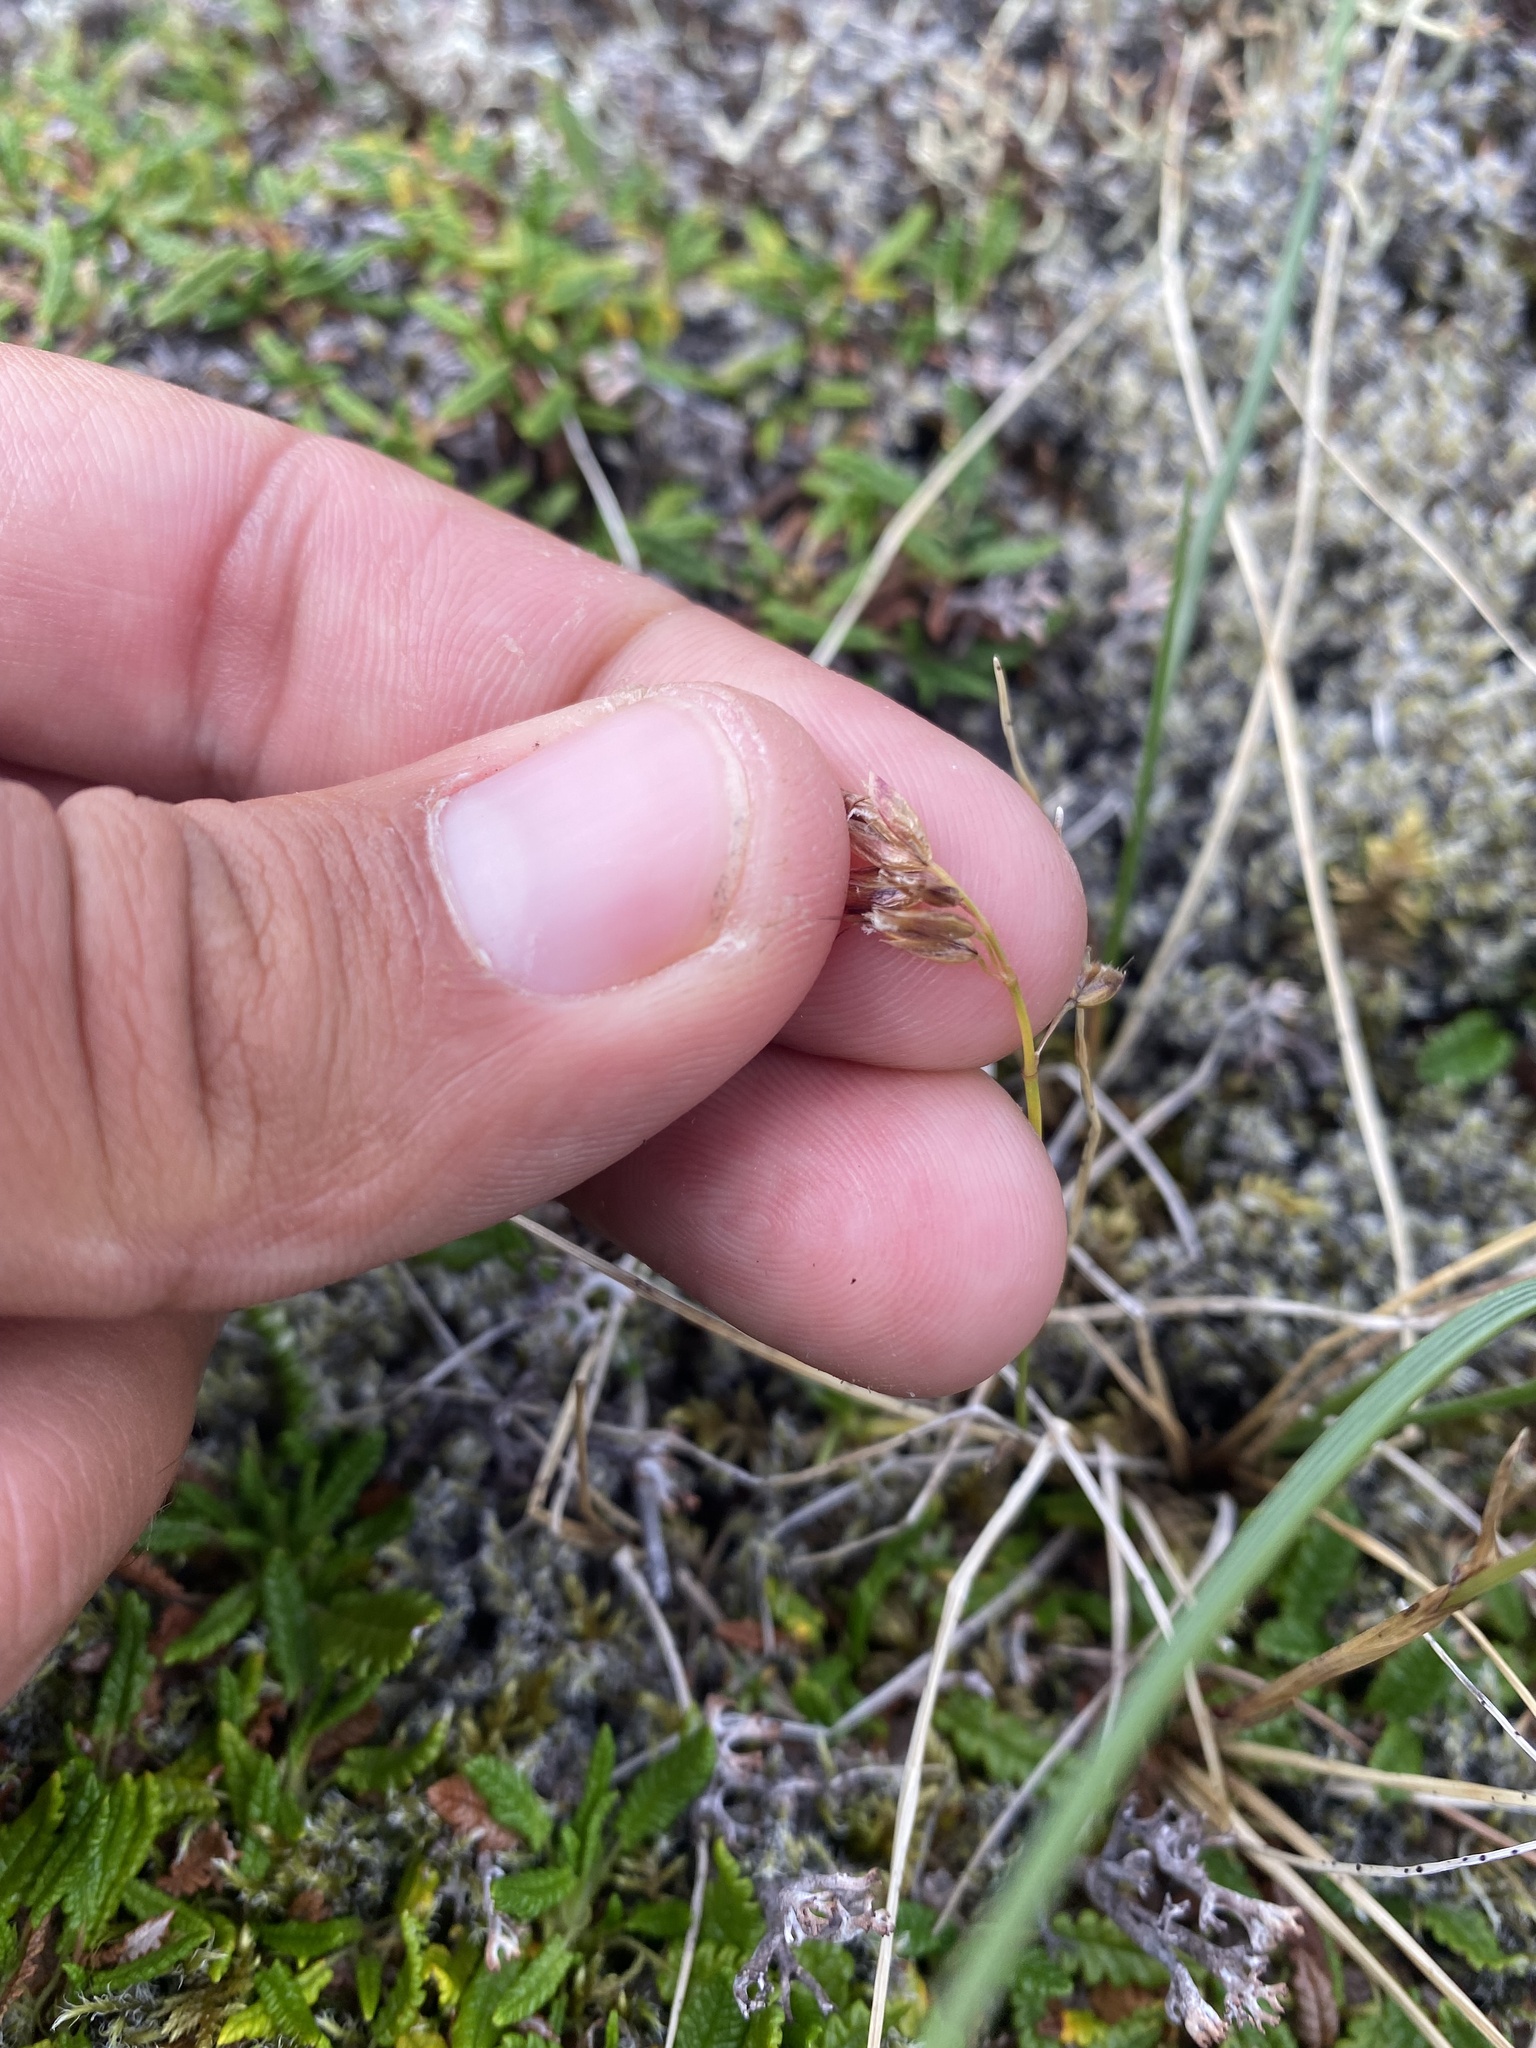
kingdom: Plantae
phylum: Tracheophyta
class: Liliopsida
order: Poales
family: Poaceae
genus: Anthoxanthum
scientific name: Anthoxanthum monticola
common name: Alpine sweetgrass
